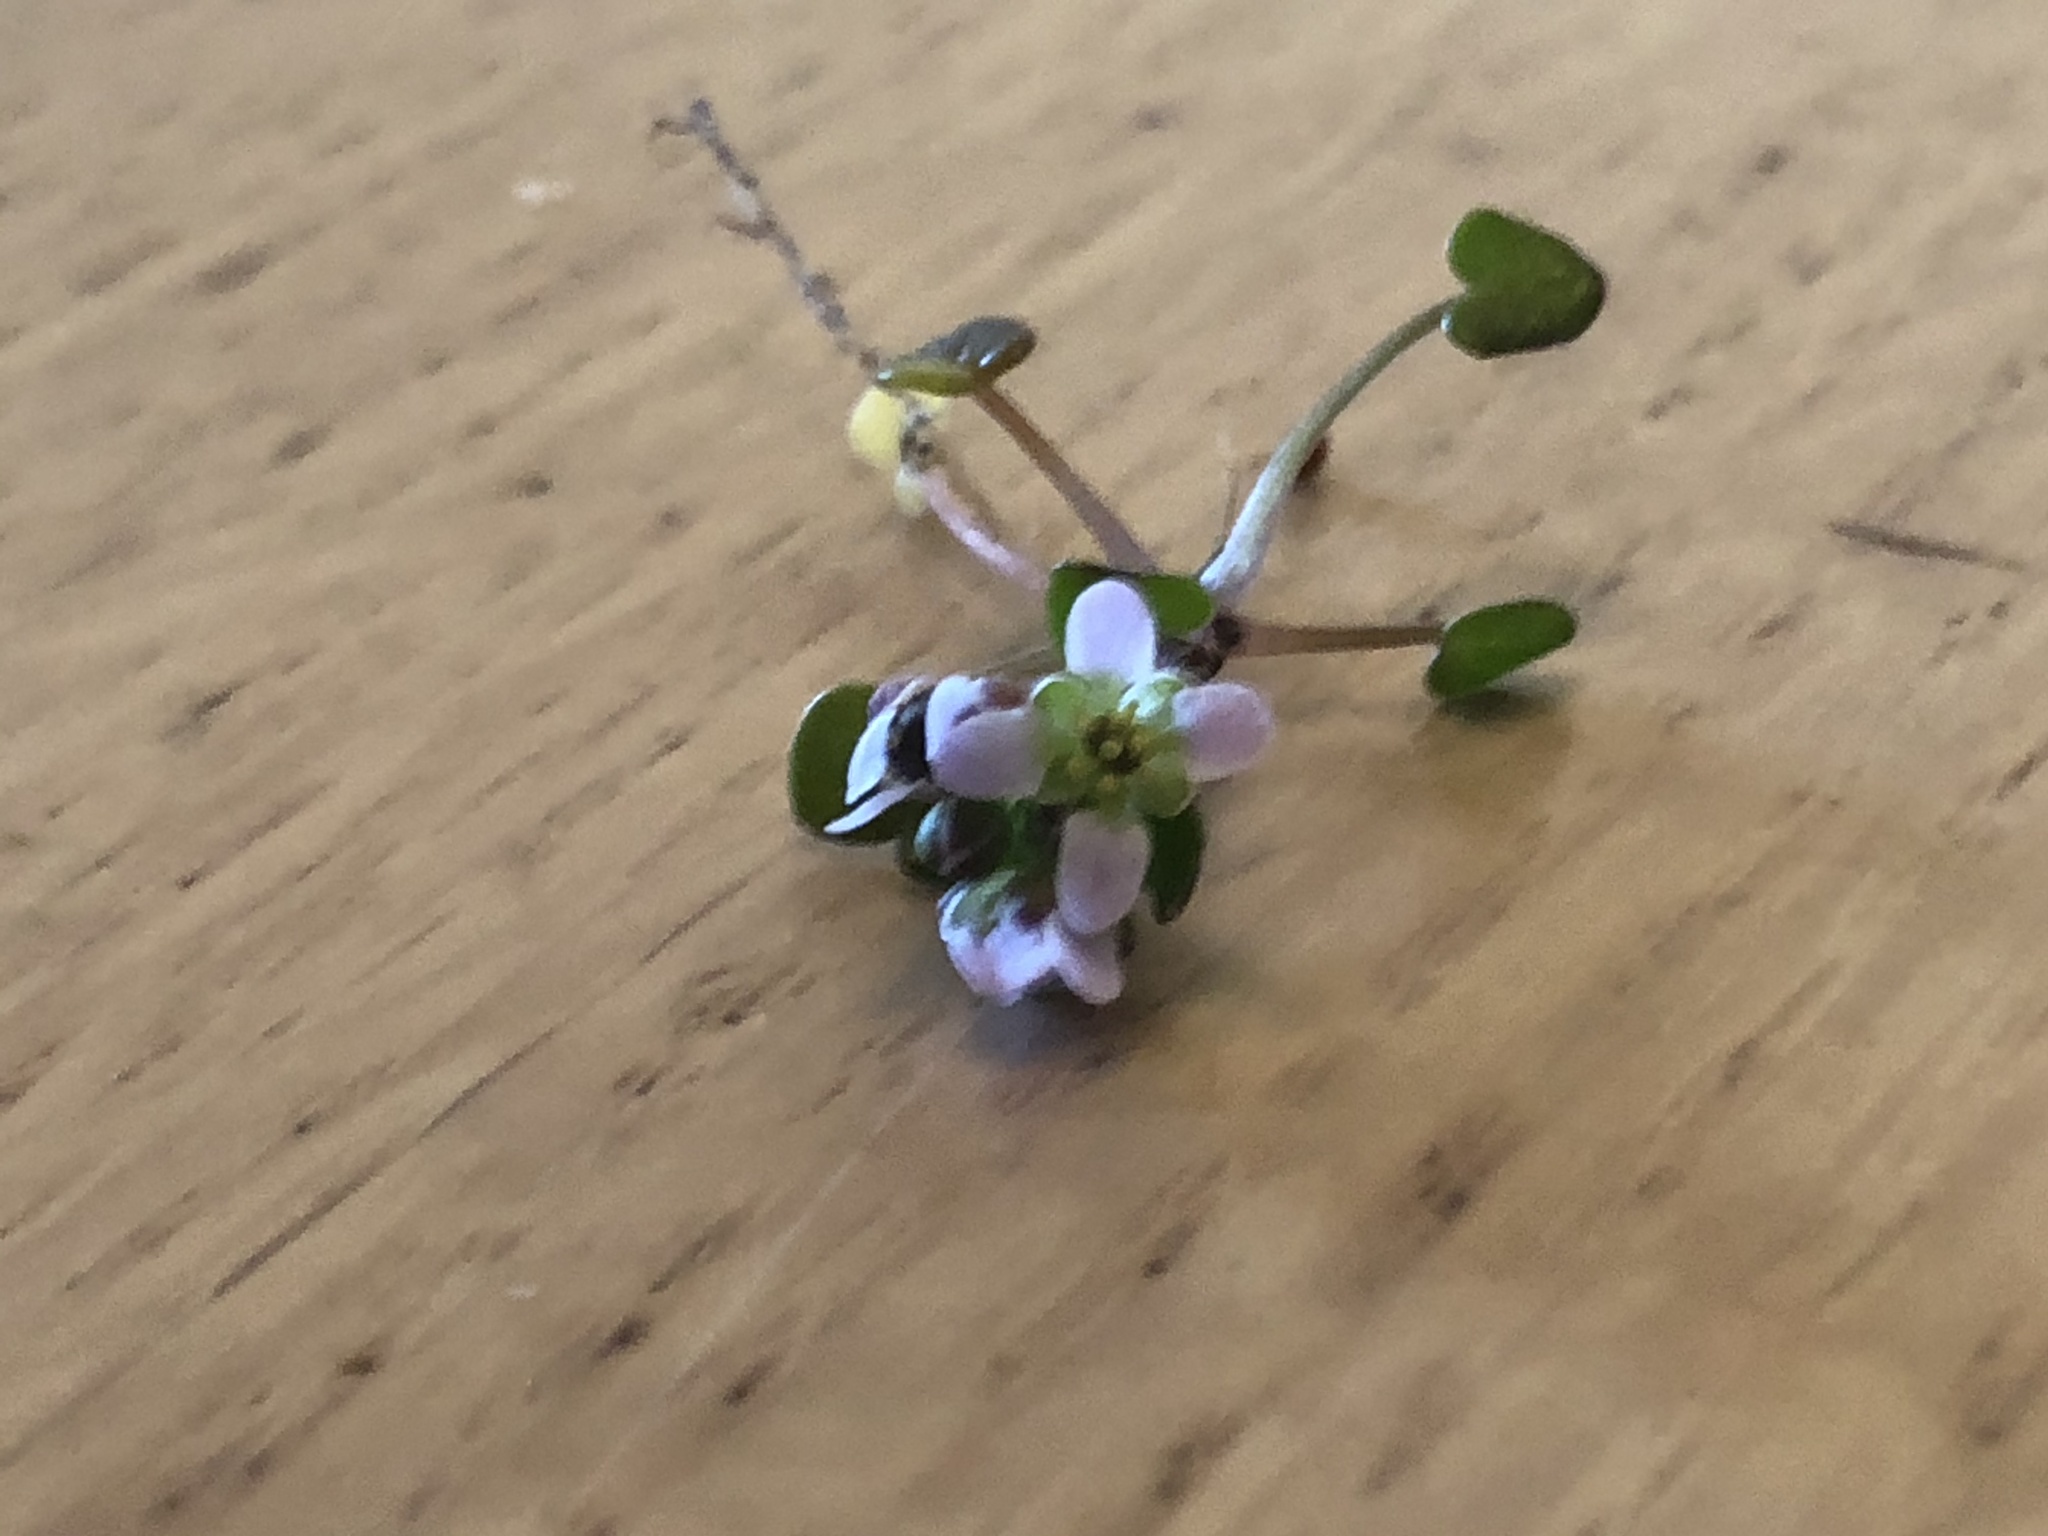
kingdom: Plantae
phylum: Tracheophyta
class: Magnoliopsida
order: Brassicales
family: Brassicaceae
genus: Cochlearia
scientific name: Cochlearia officinalis
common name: Scurvy-grass
